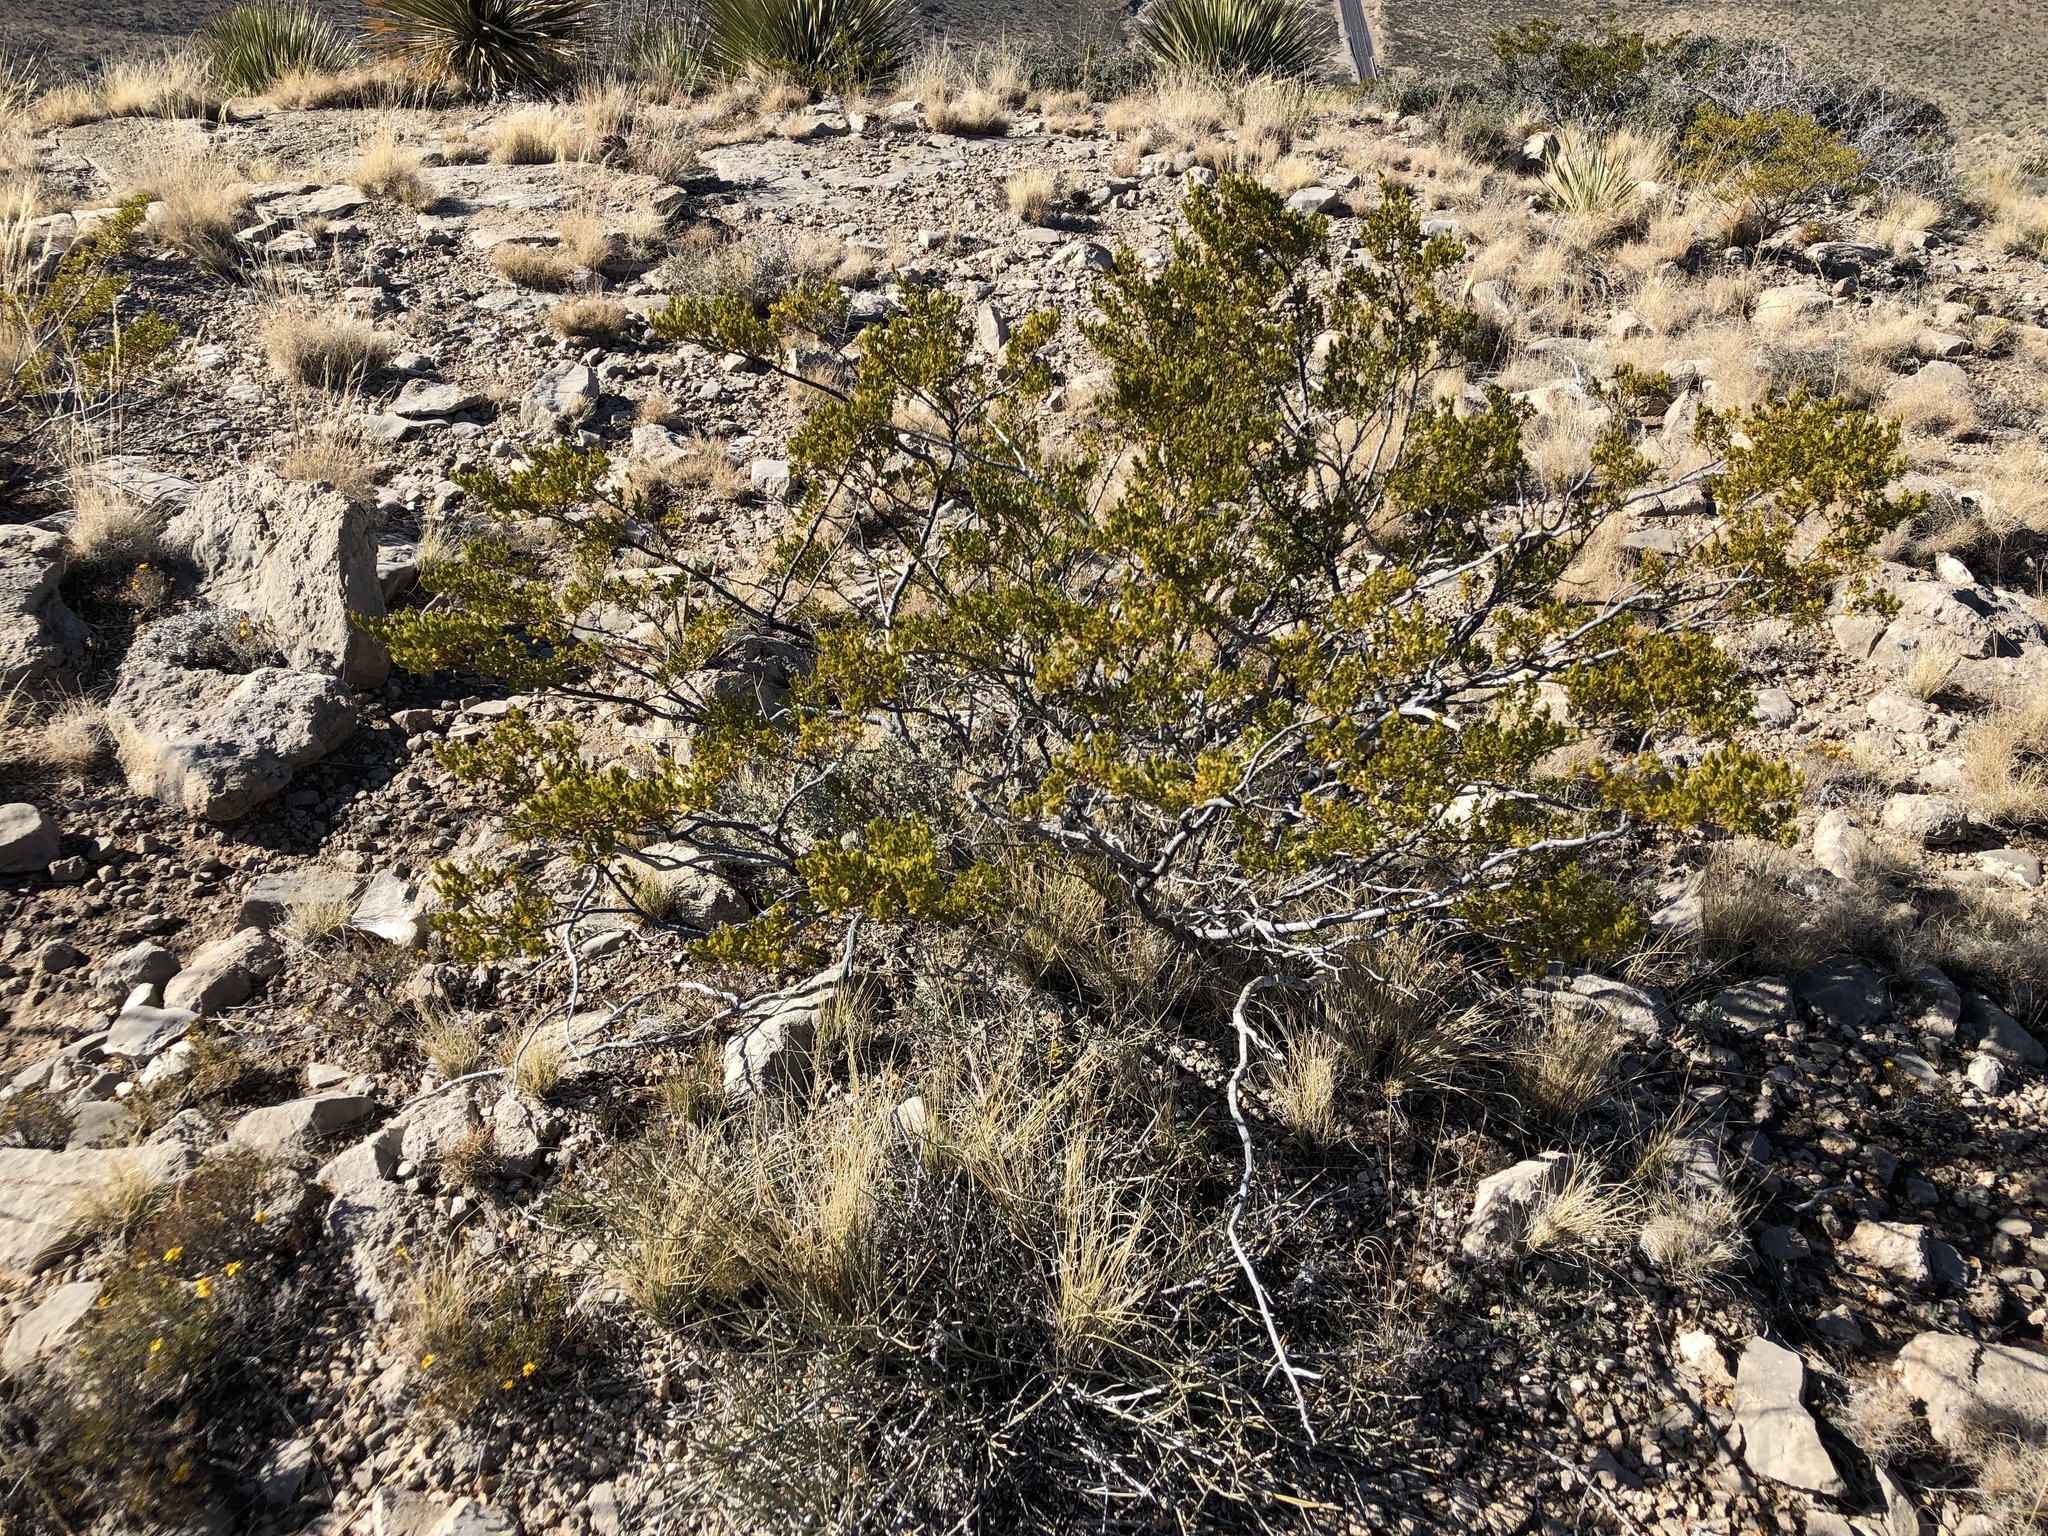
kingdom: Plantae
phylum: Tracheophyta
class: Magnoliopsida
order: Zygophyllales
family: Zygophyllaceae
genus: Larrea
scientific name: Larrea tridentata
